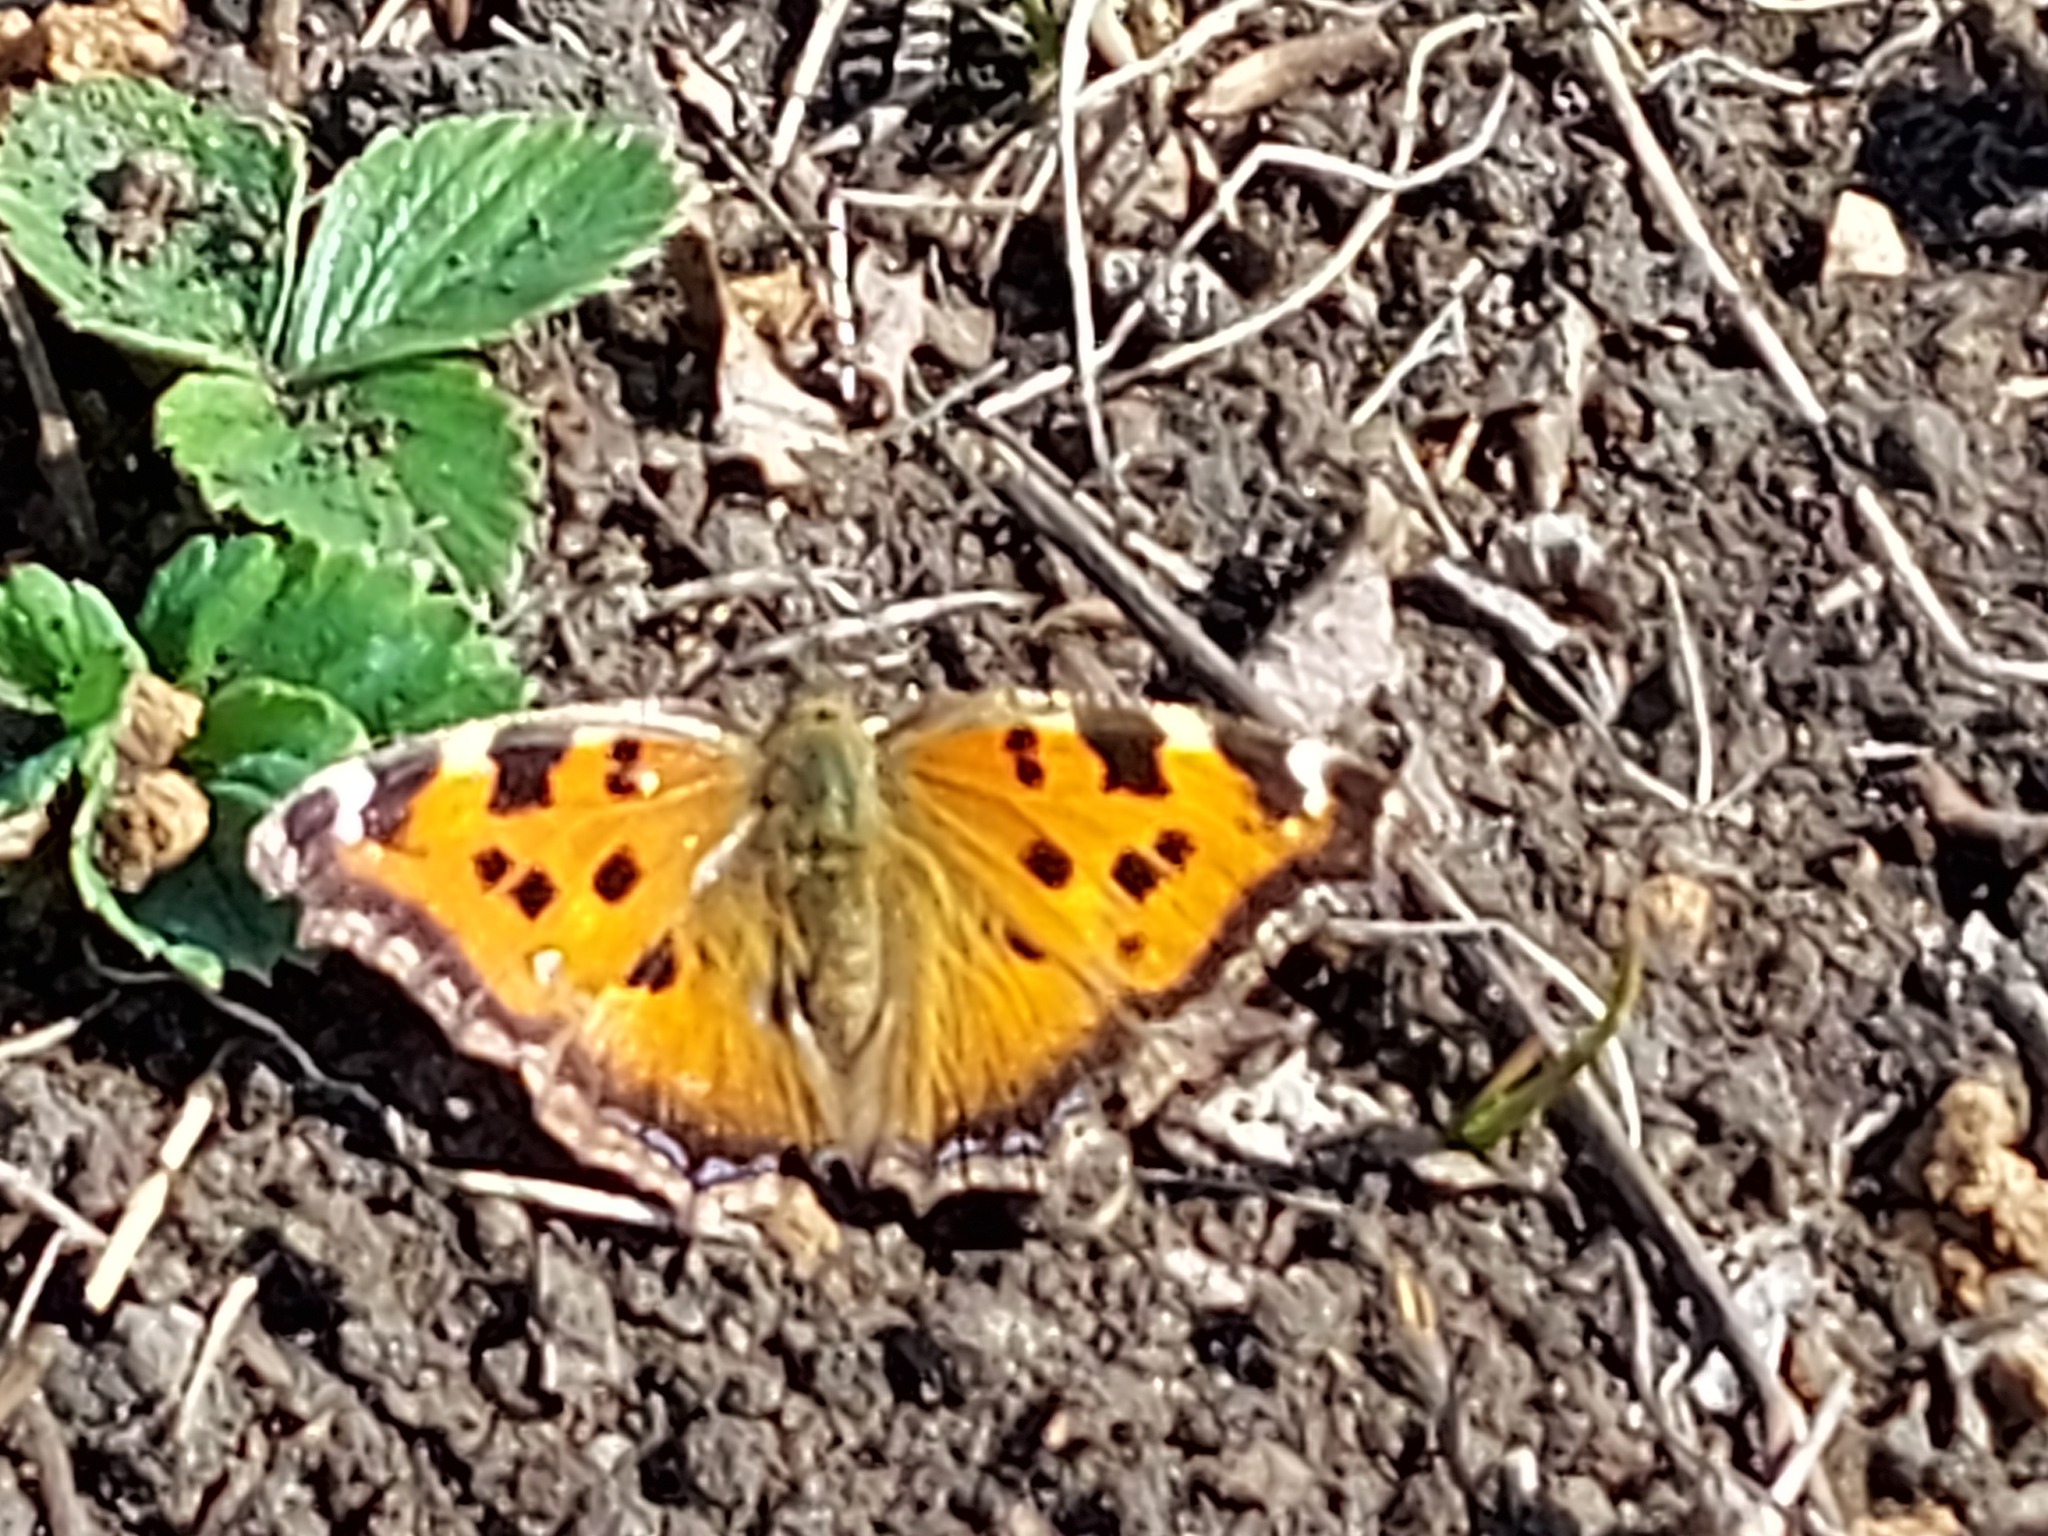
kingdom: Animalia
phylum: Arthropoda
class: Insecta
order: Lepidoptera
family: Nymphalidae
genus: Nymphalis
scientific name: Nymphalis xanthomelas
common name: Scarce tortoiseshell
